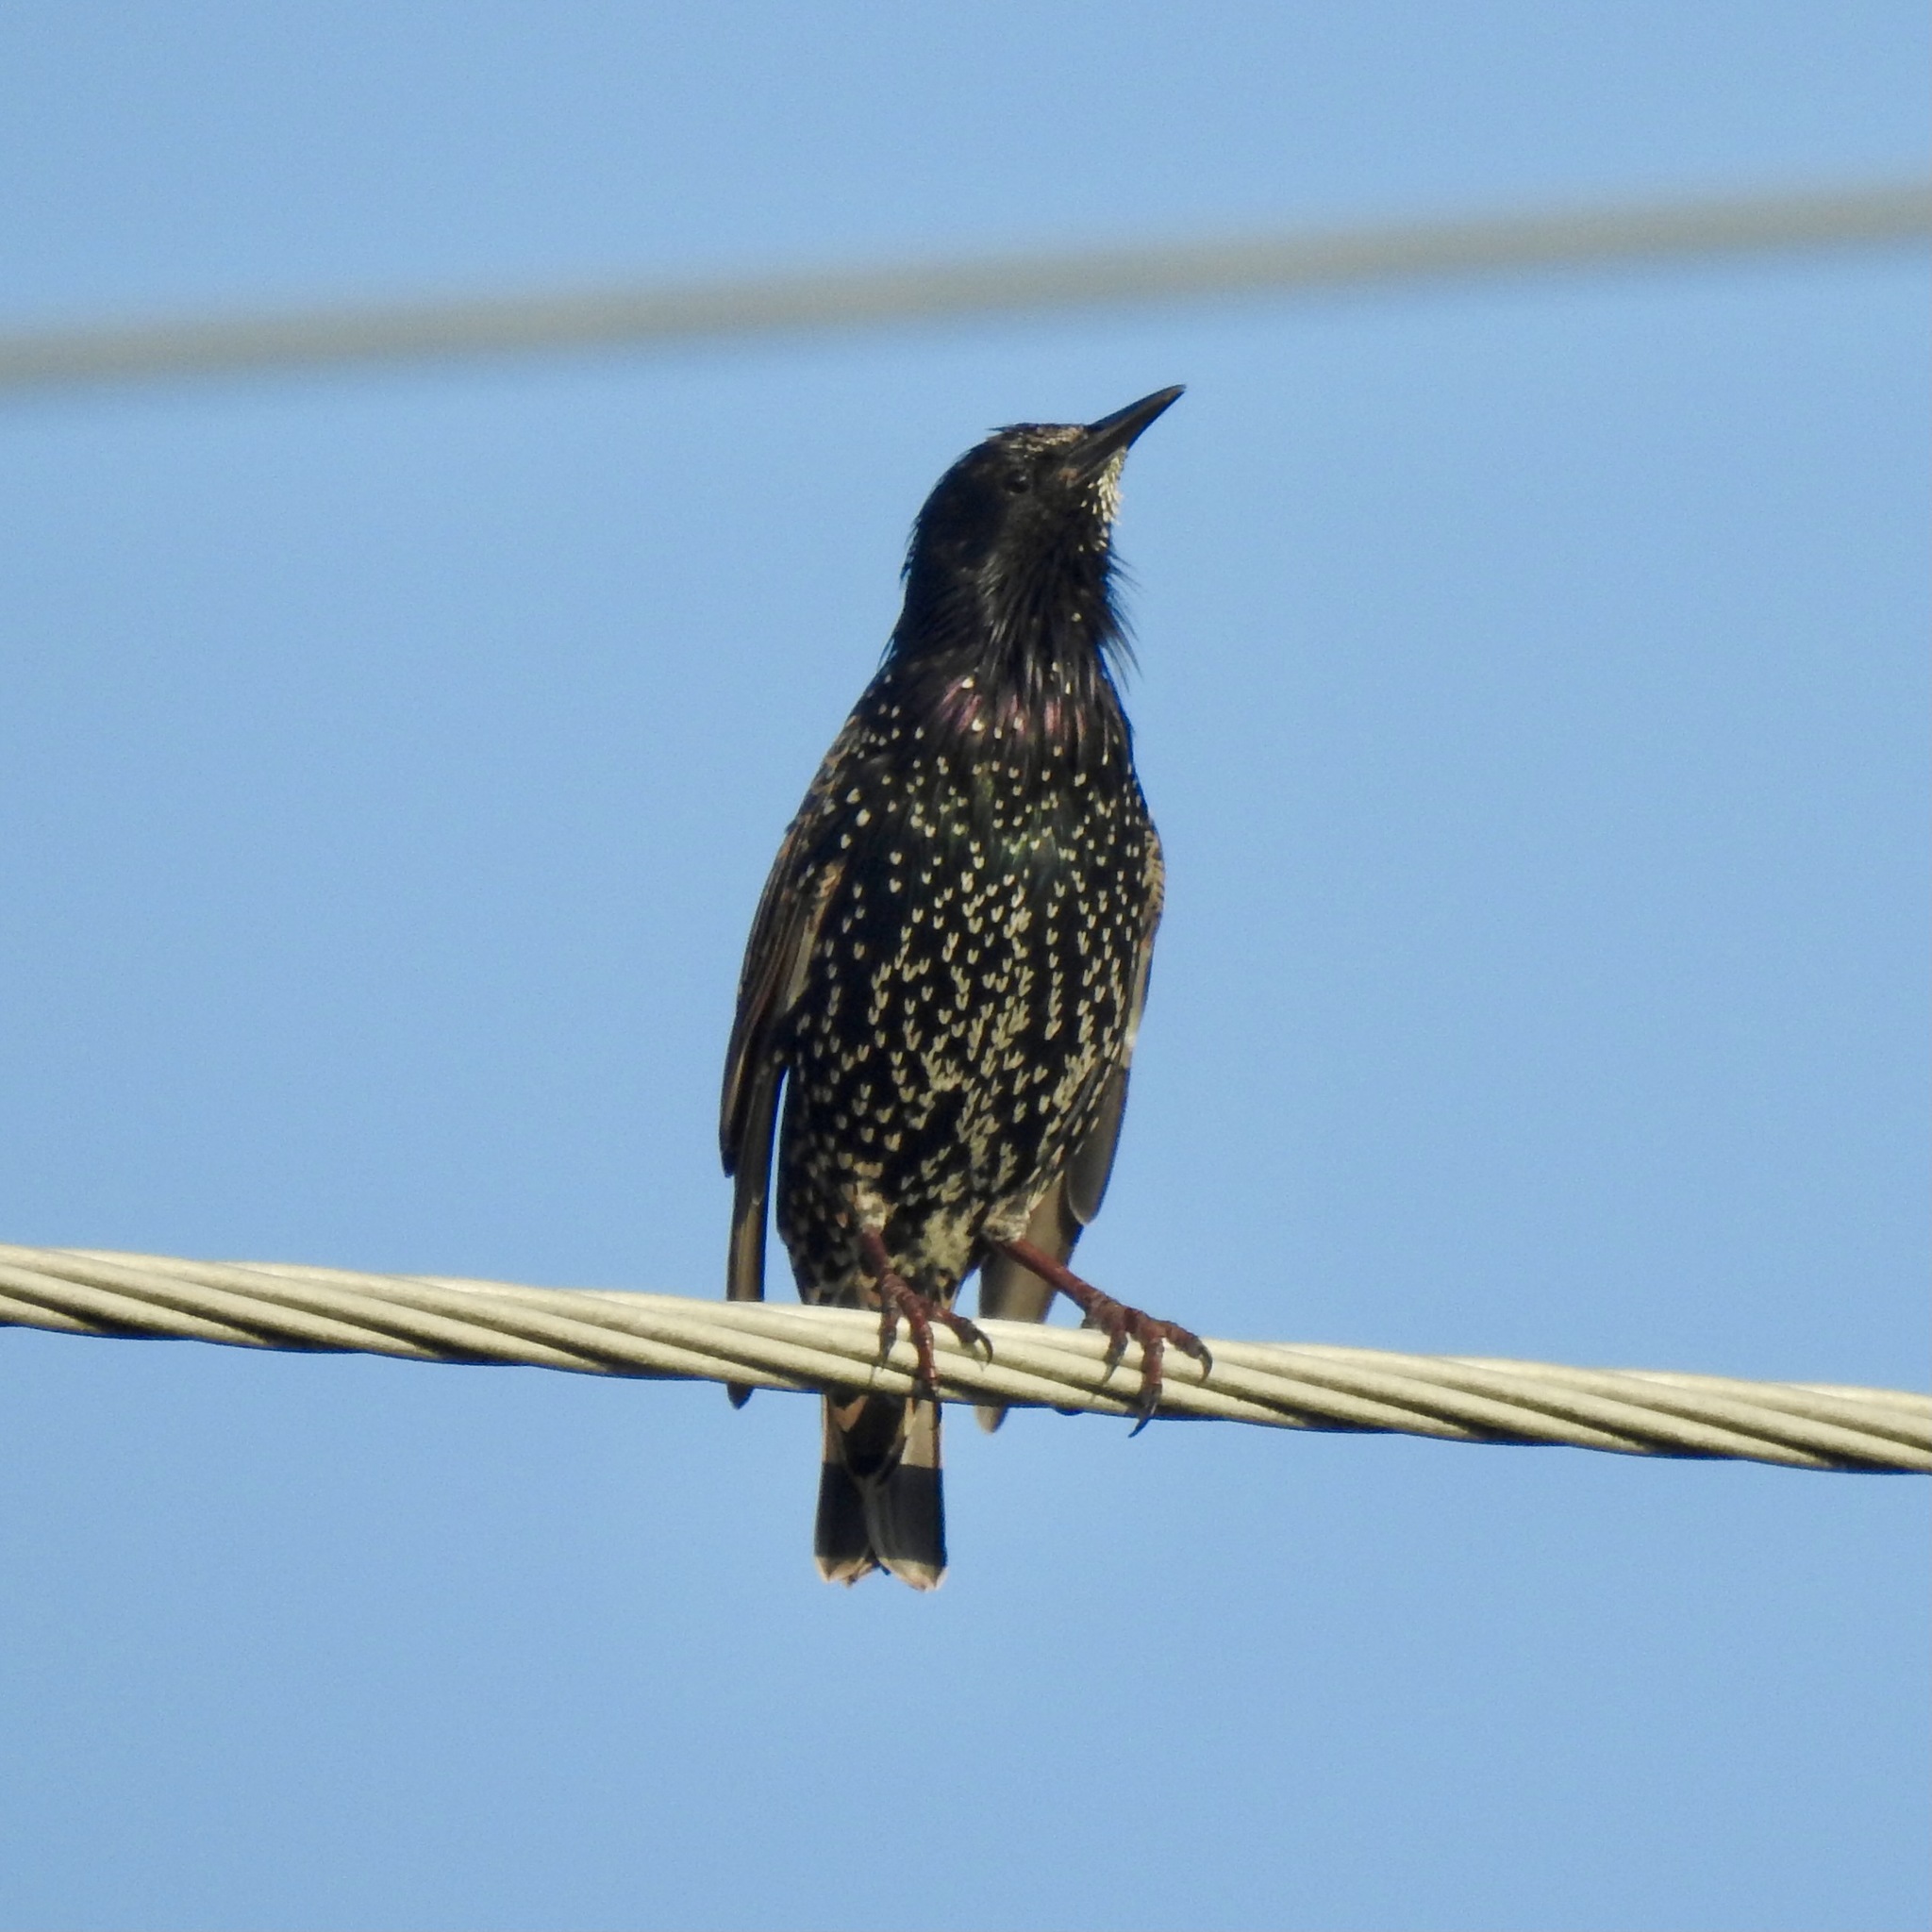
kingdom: Animalia
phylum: Chordata
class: Aves
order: Passeriformes
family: Sturnidae
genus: Sturnus
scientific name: Sturnus vulgaris
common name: Common starling
